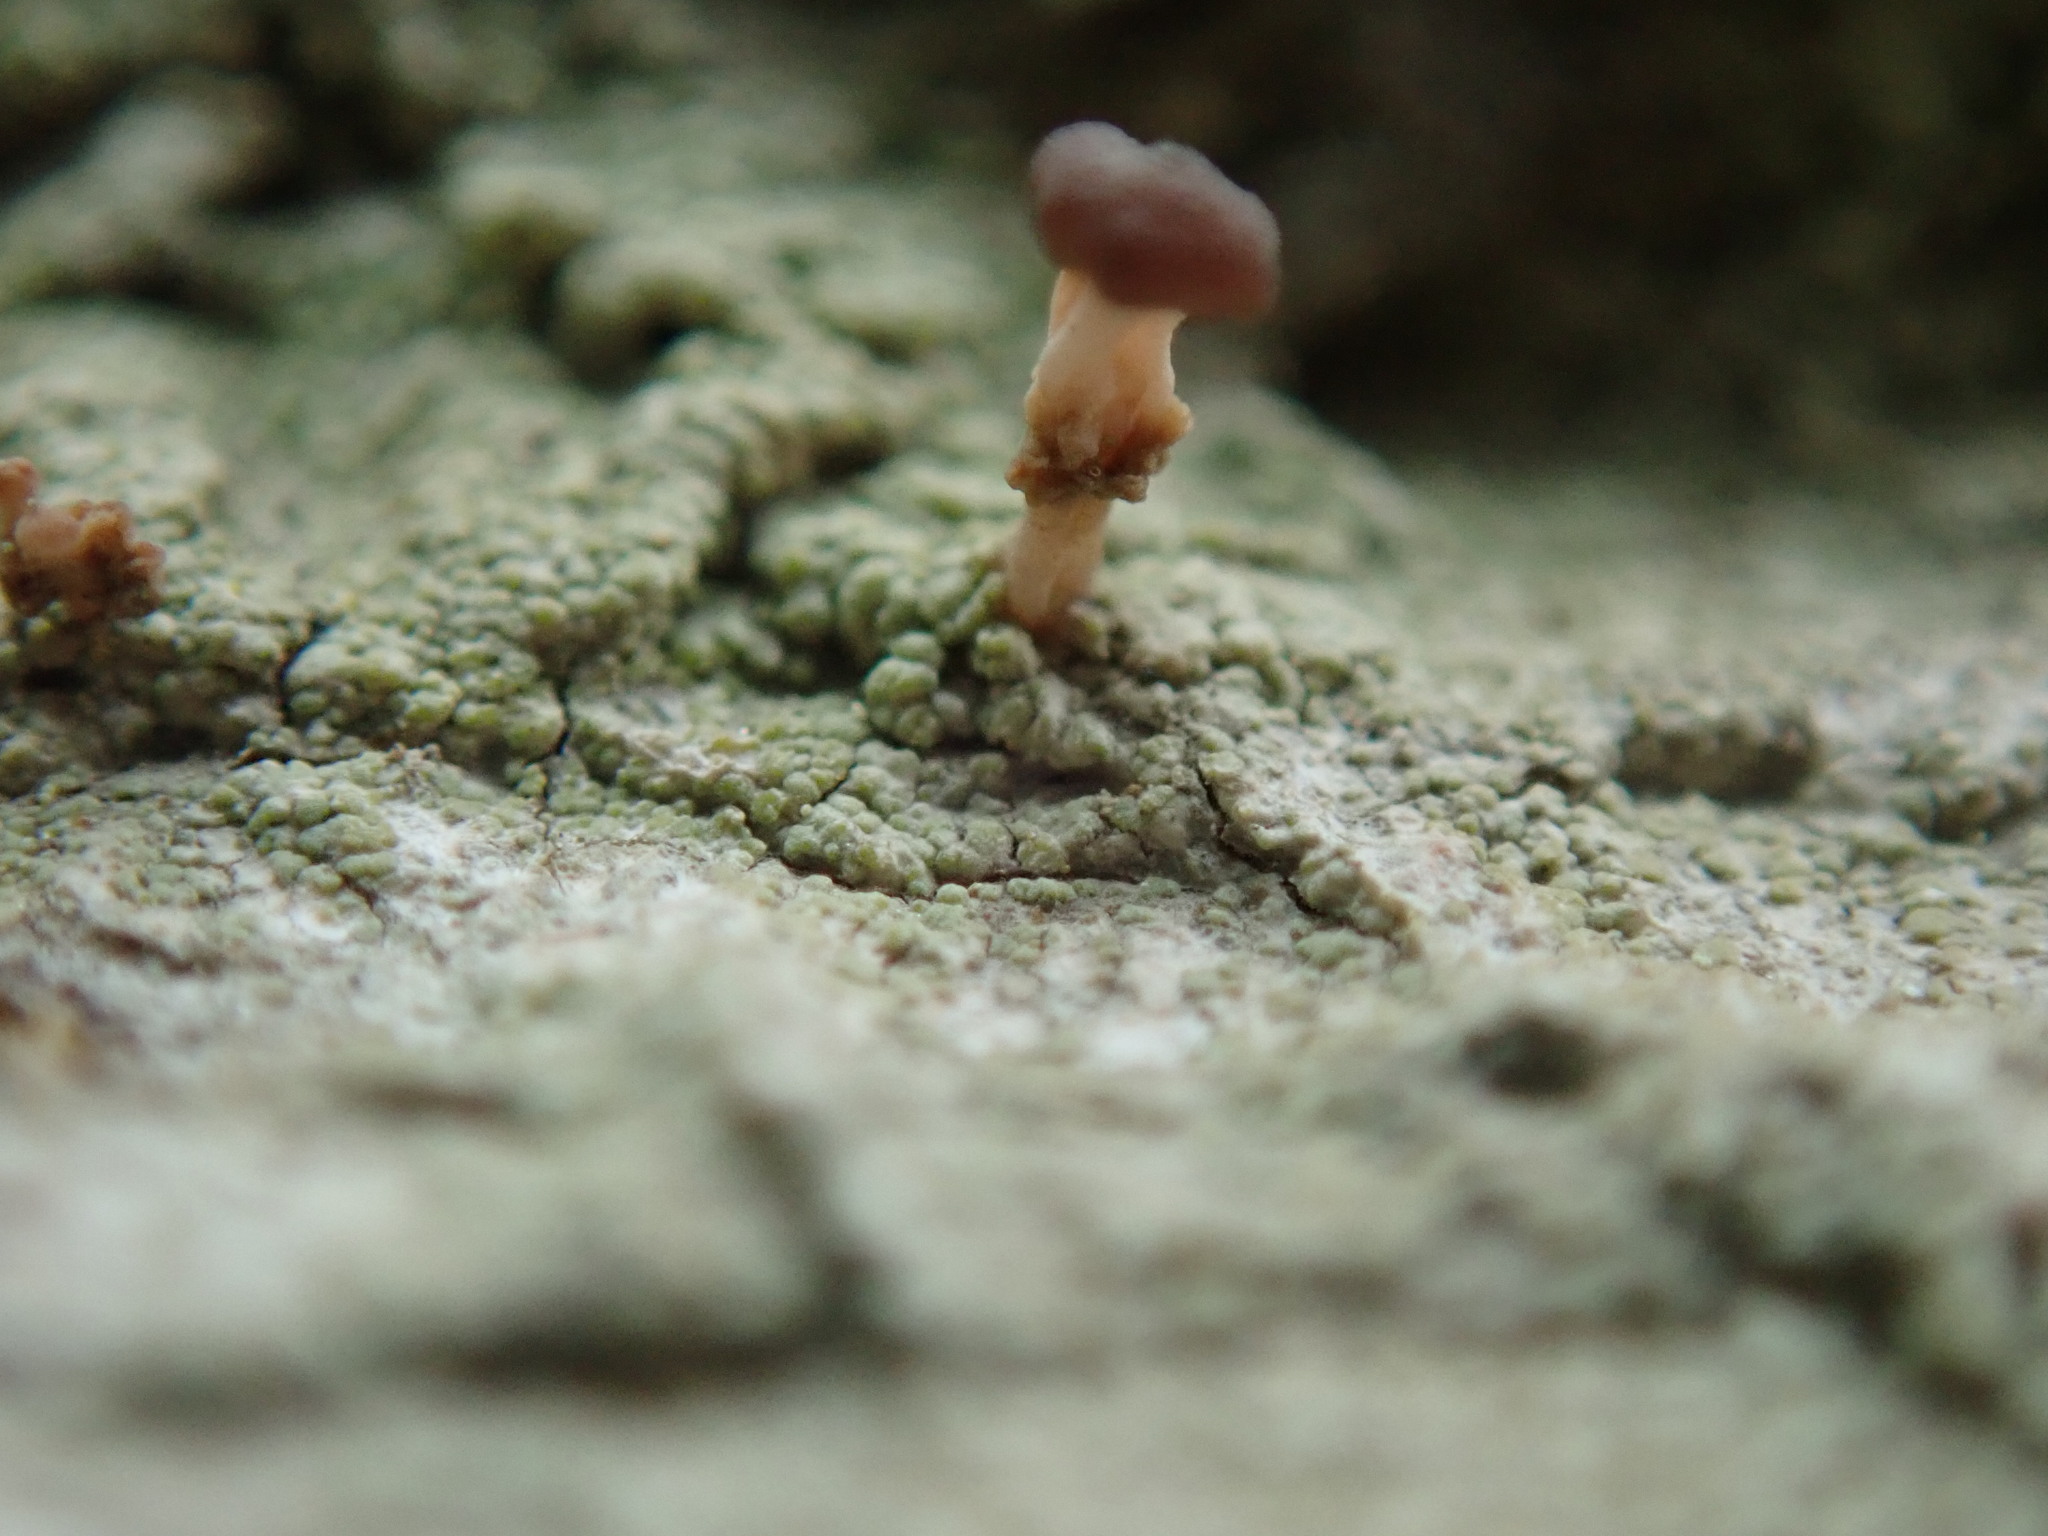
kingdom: Fungi
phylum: Ascomycota
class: Lecanoromycetes
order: Baeomycetales
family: Baeomycetaceae
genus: Baeomyces
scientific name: Baeomyces rufus
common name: Brown beret lichen
